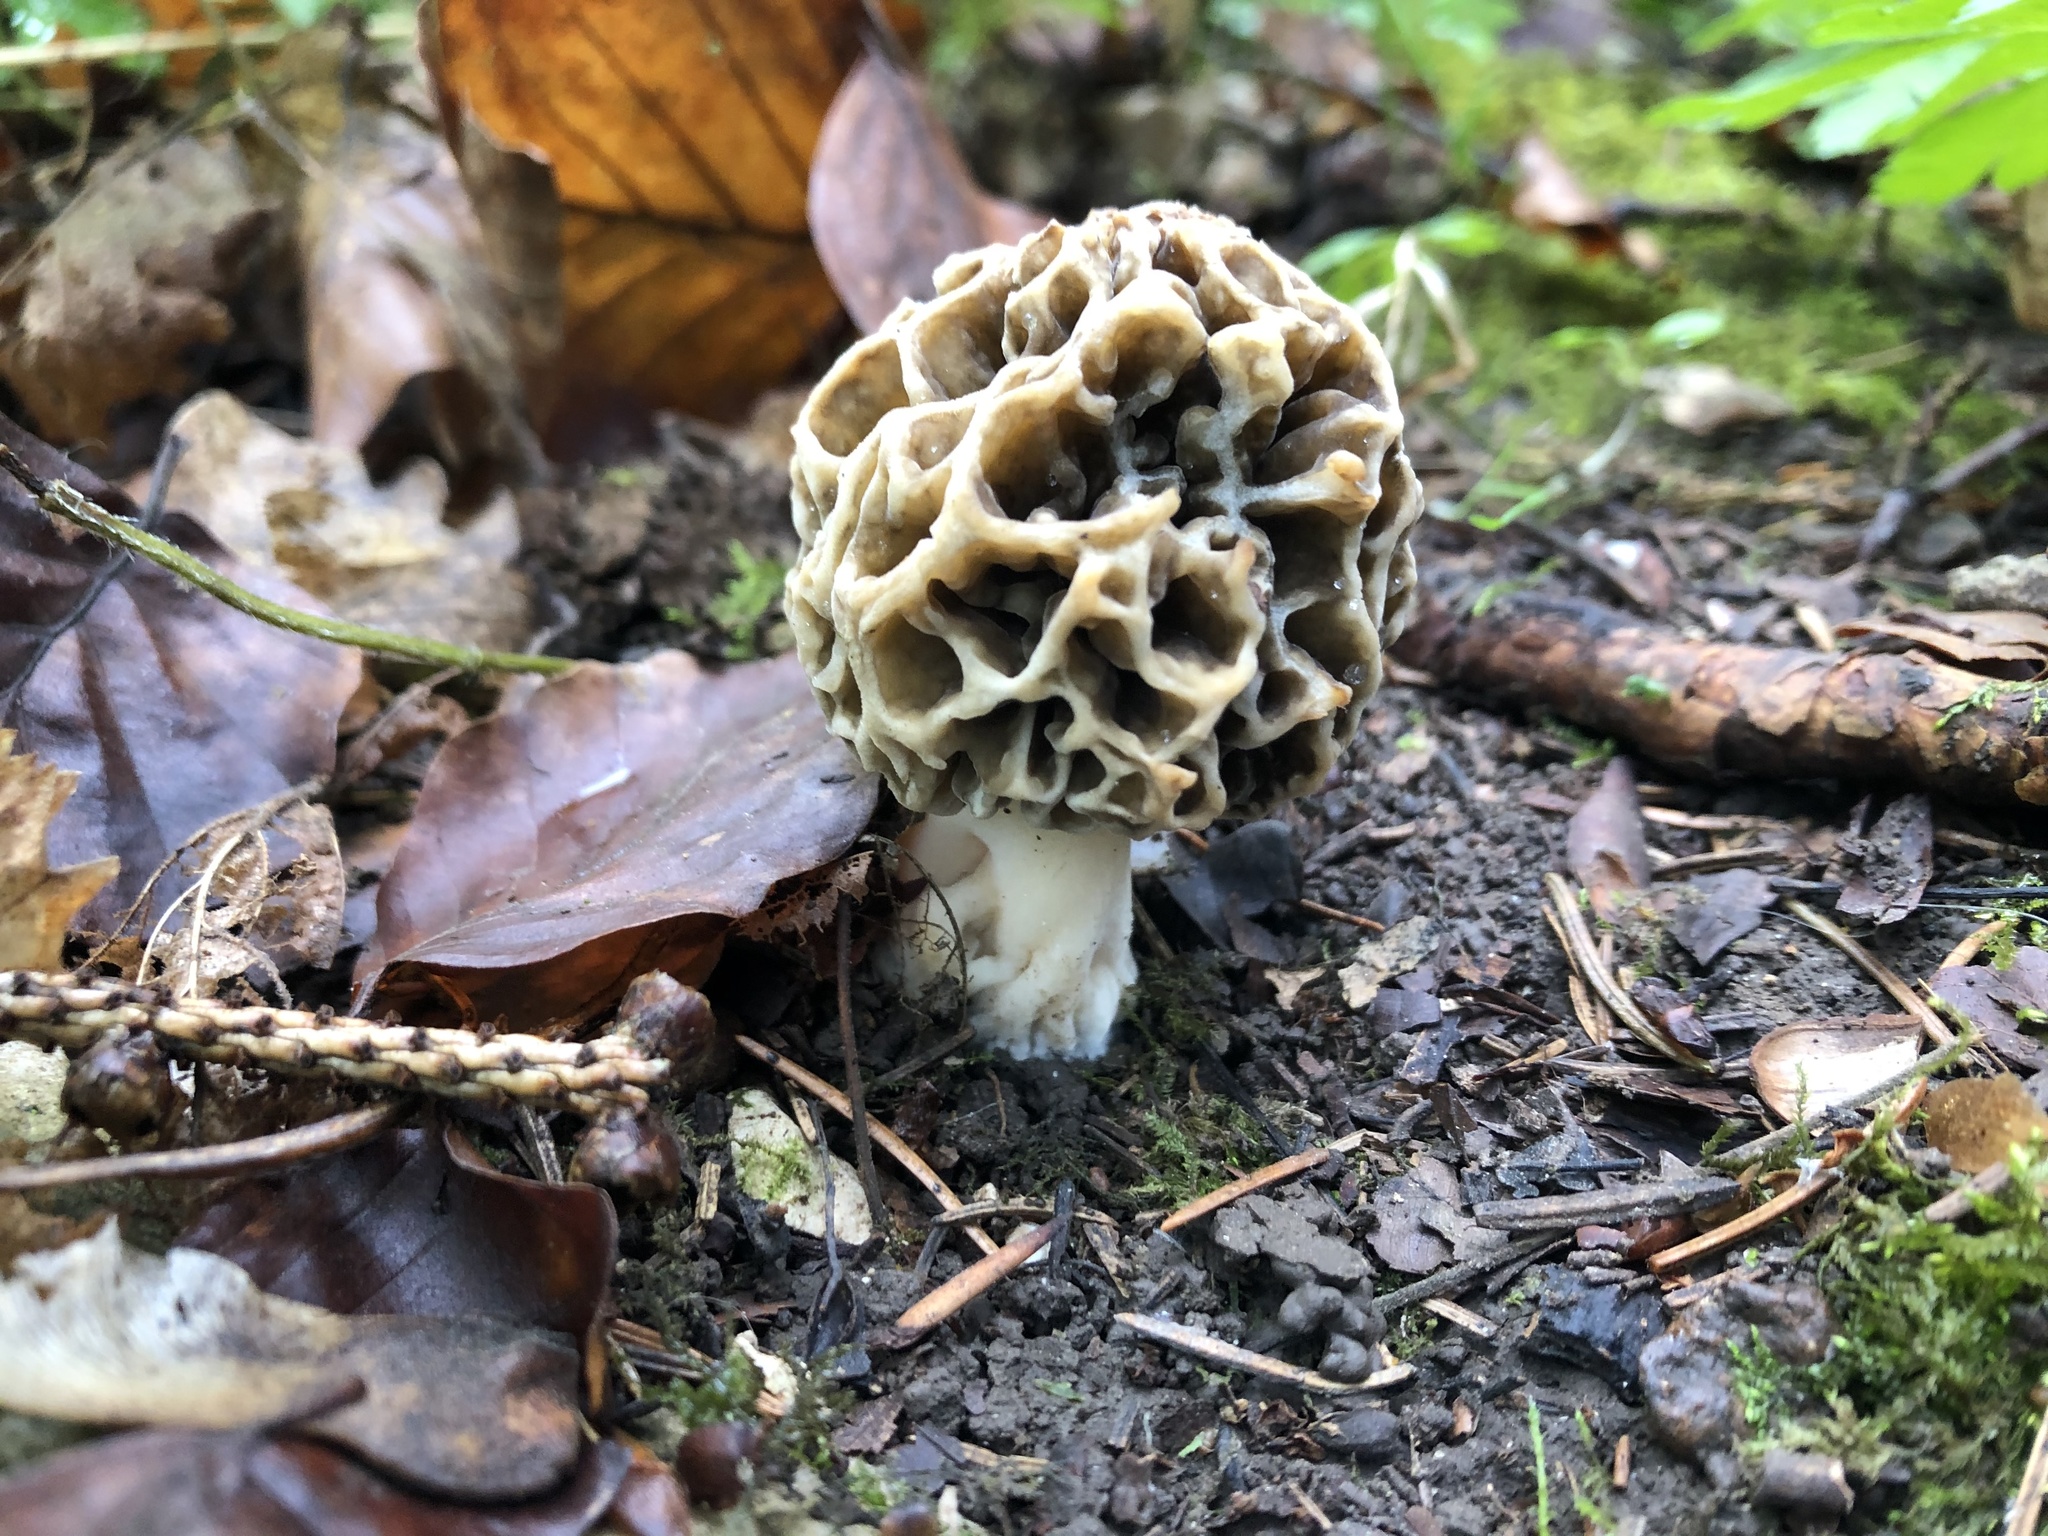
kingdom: Fungi
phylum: Ascomycota
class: Pezizomycetes
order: Pezizales
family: Morchellaceae
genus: Morchella
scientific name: Morchella esculenta
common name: Morel
